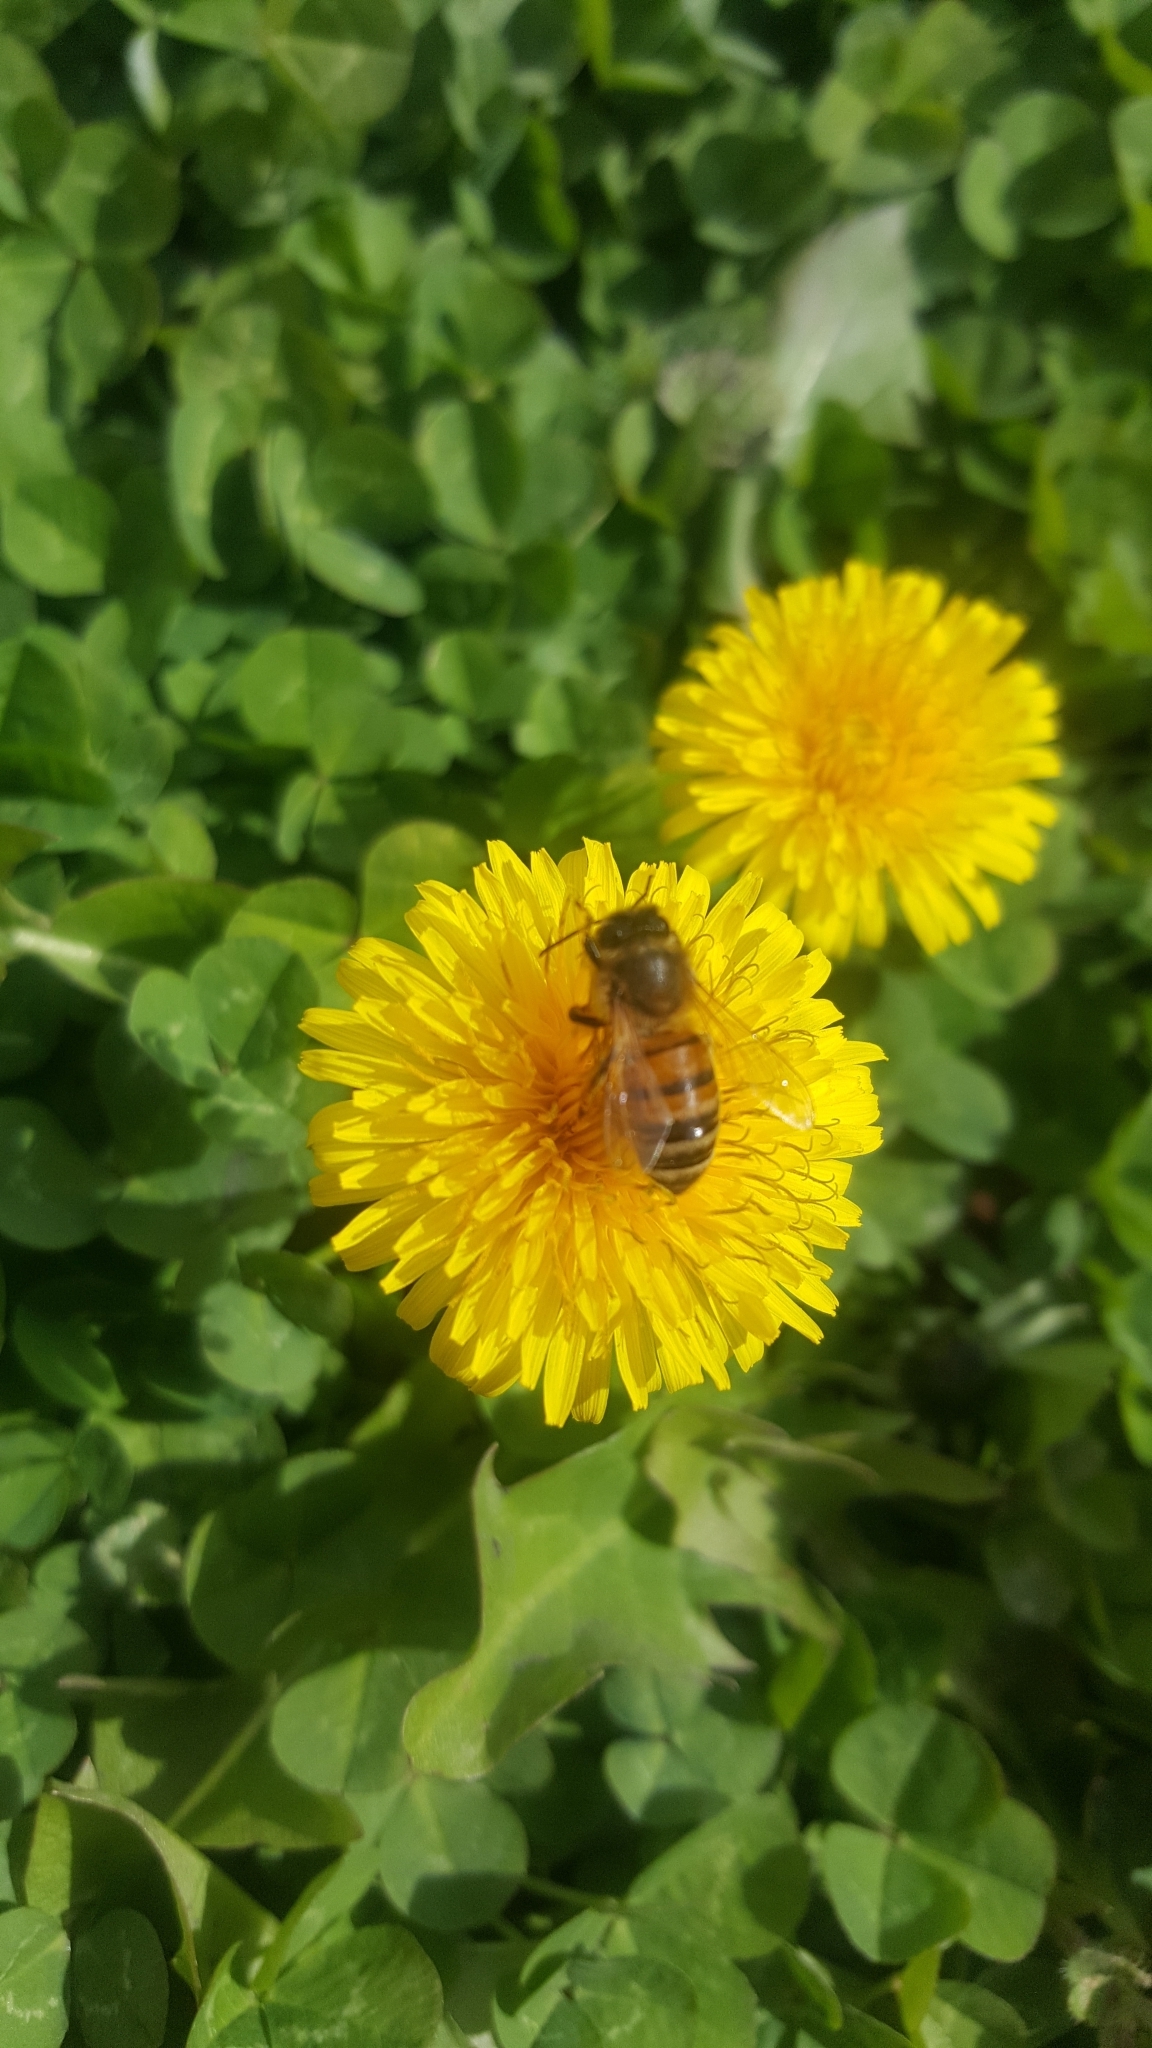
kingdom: Animalia
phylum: Arthropoda
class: Insecta
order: Hymenoptera
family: Apidae
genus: Apis
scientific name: Apis mellifera
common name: Honey bee
